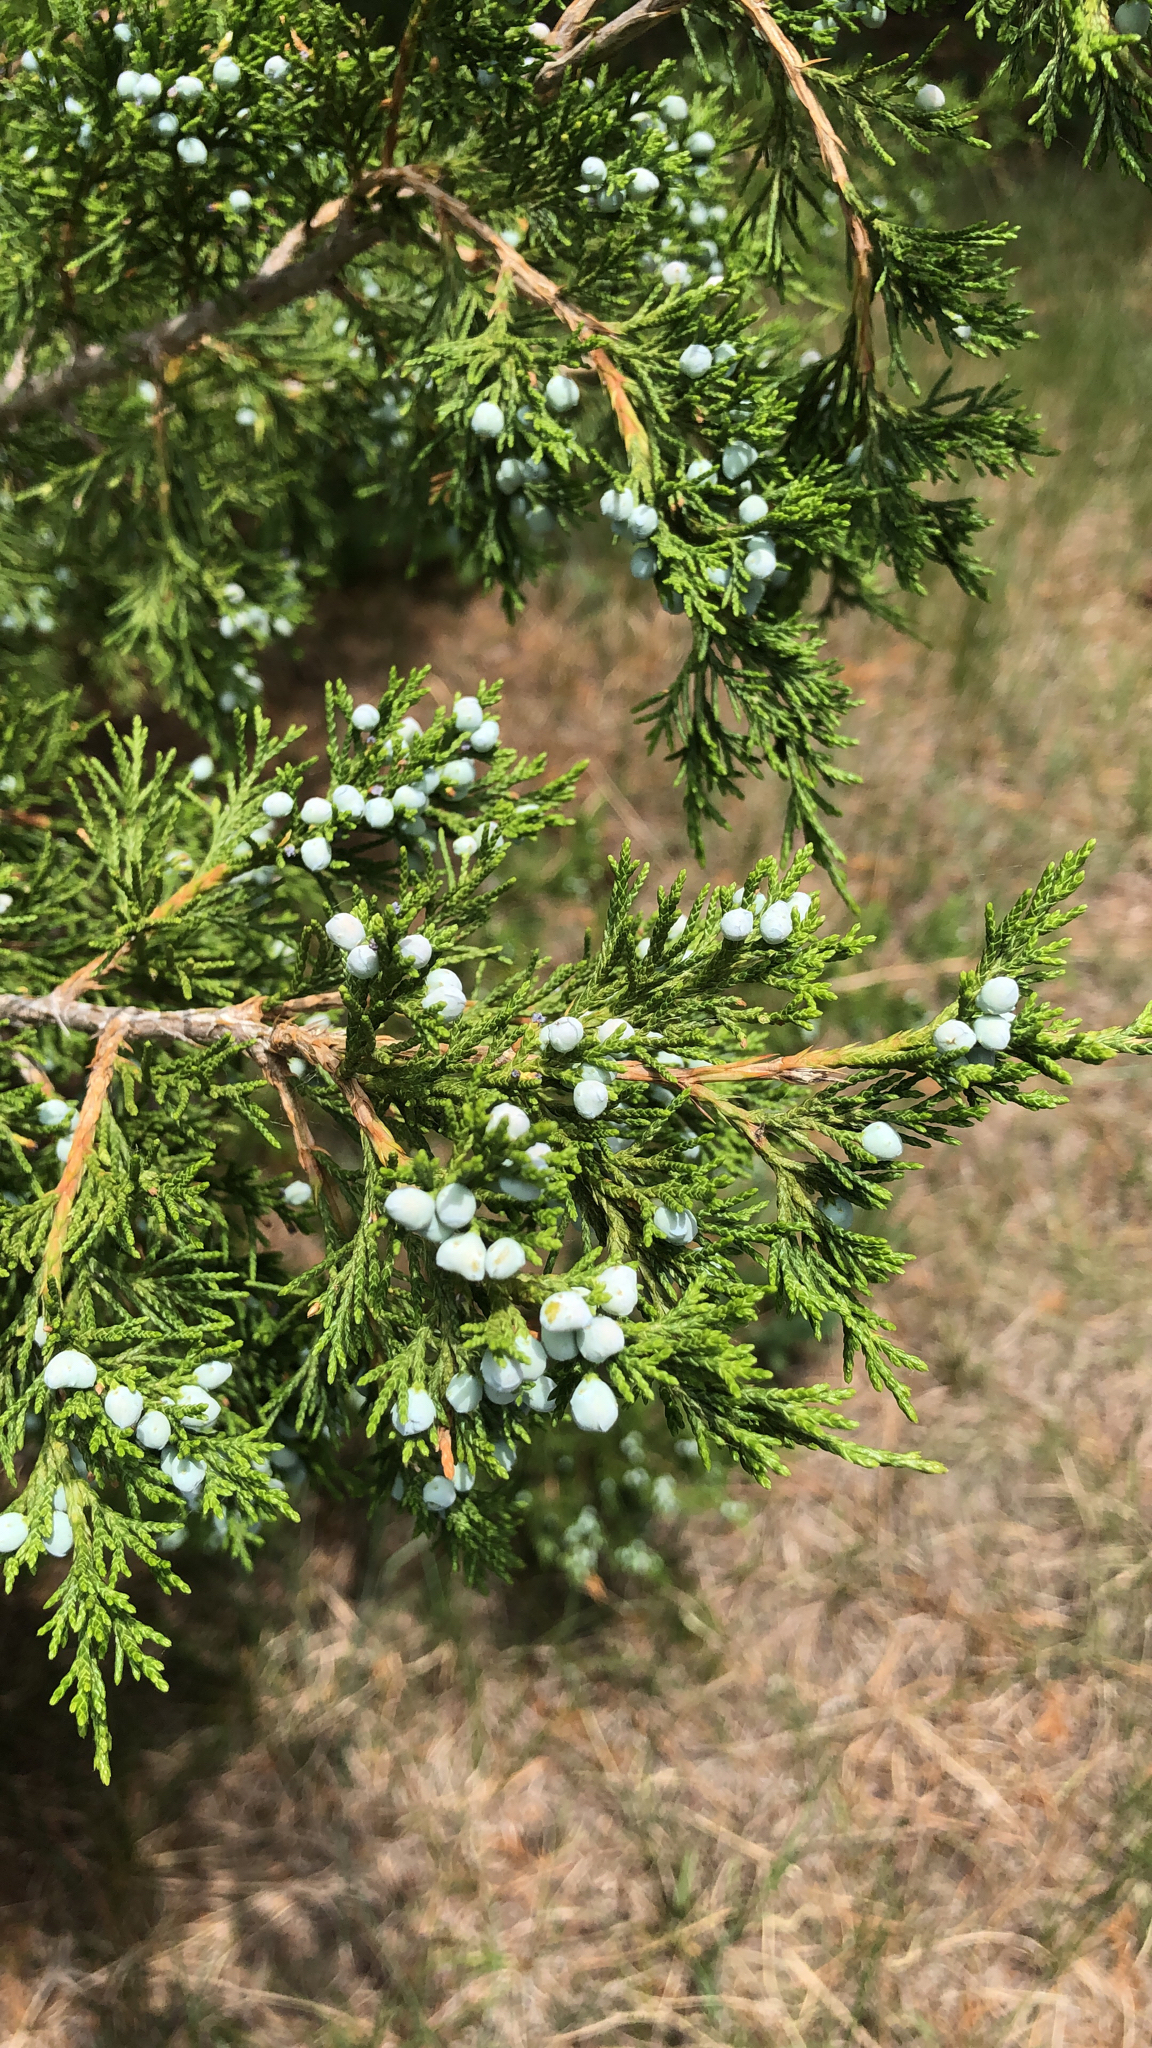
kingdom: Plantae
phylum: Tracheophyta
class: Pinopsida
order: Pinales
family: Cupressaceae
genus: Juniperus
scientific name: Juniperus virginiana
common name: Red juniper
